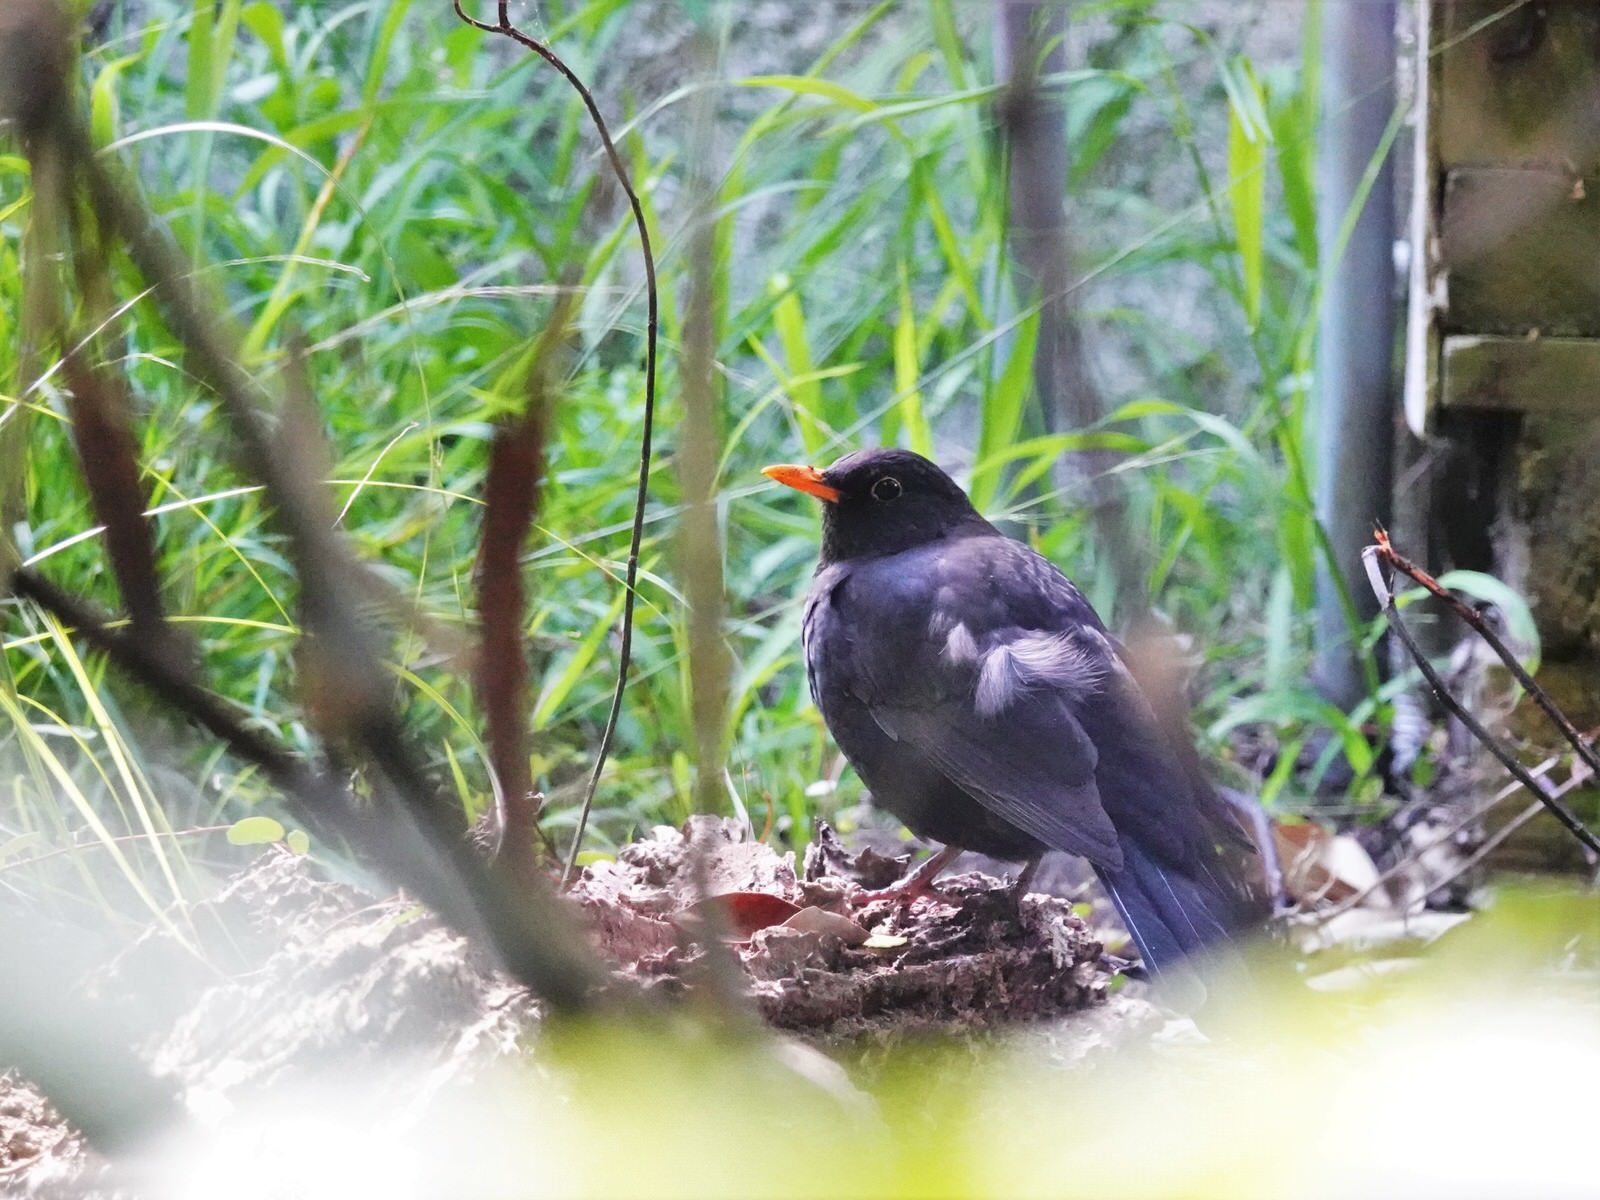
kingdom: Animalia
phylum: Chordata
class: Aves
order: Passeriformes
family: Turdidae
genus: Turdus
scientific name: Turdus merula
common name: Common blackbird
